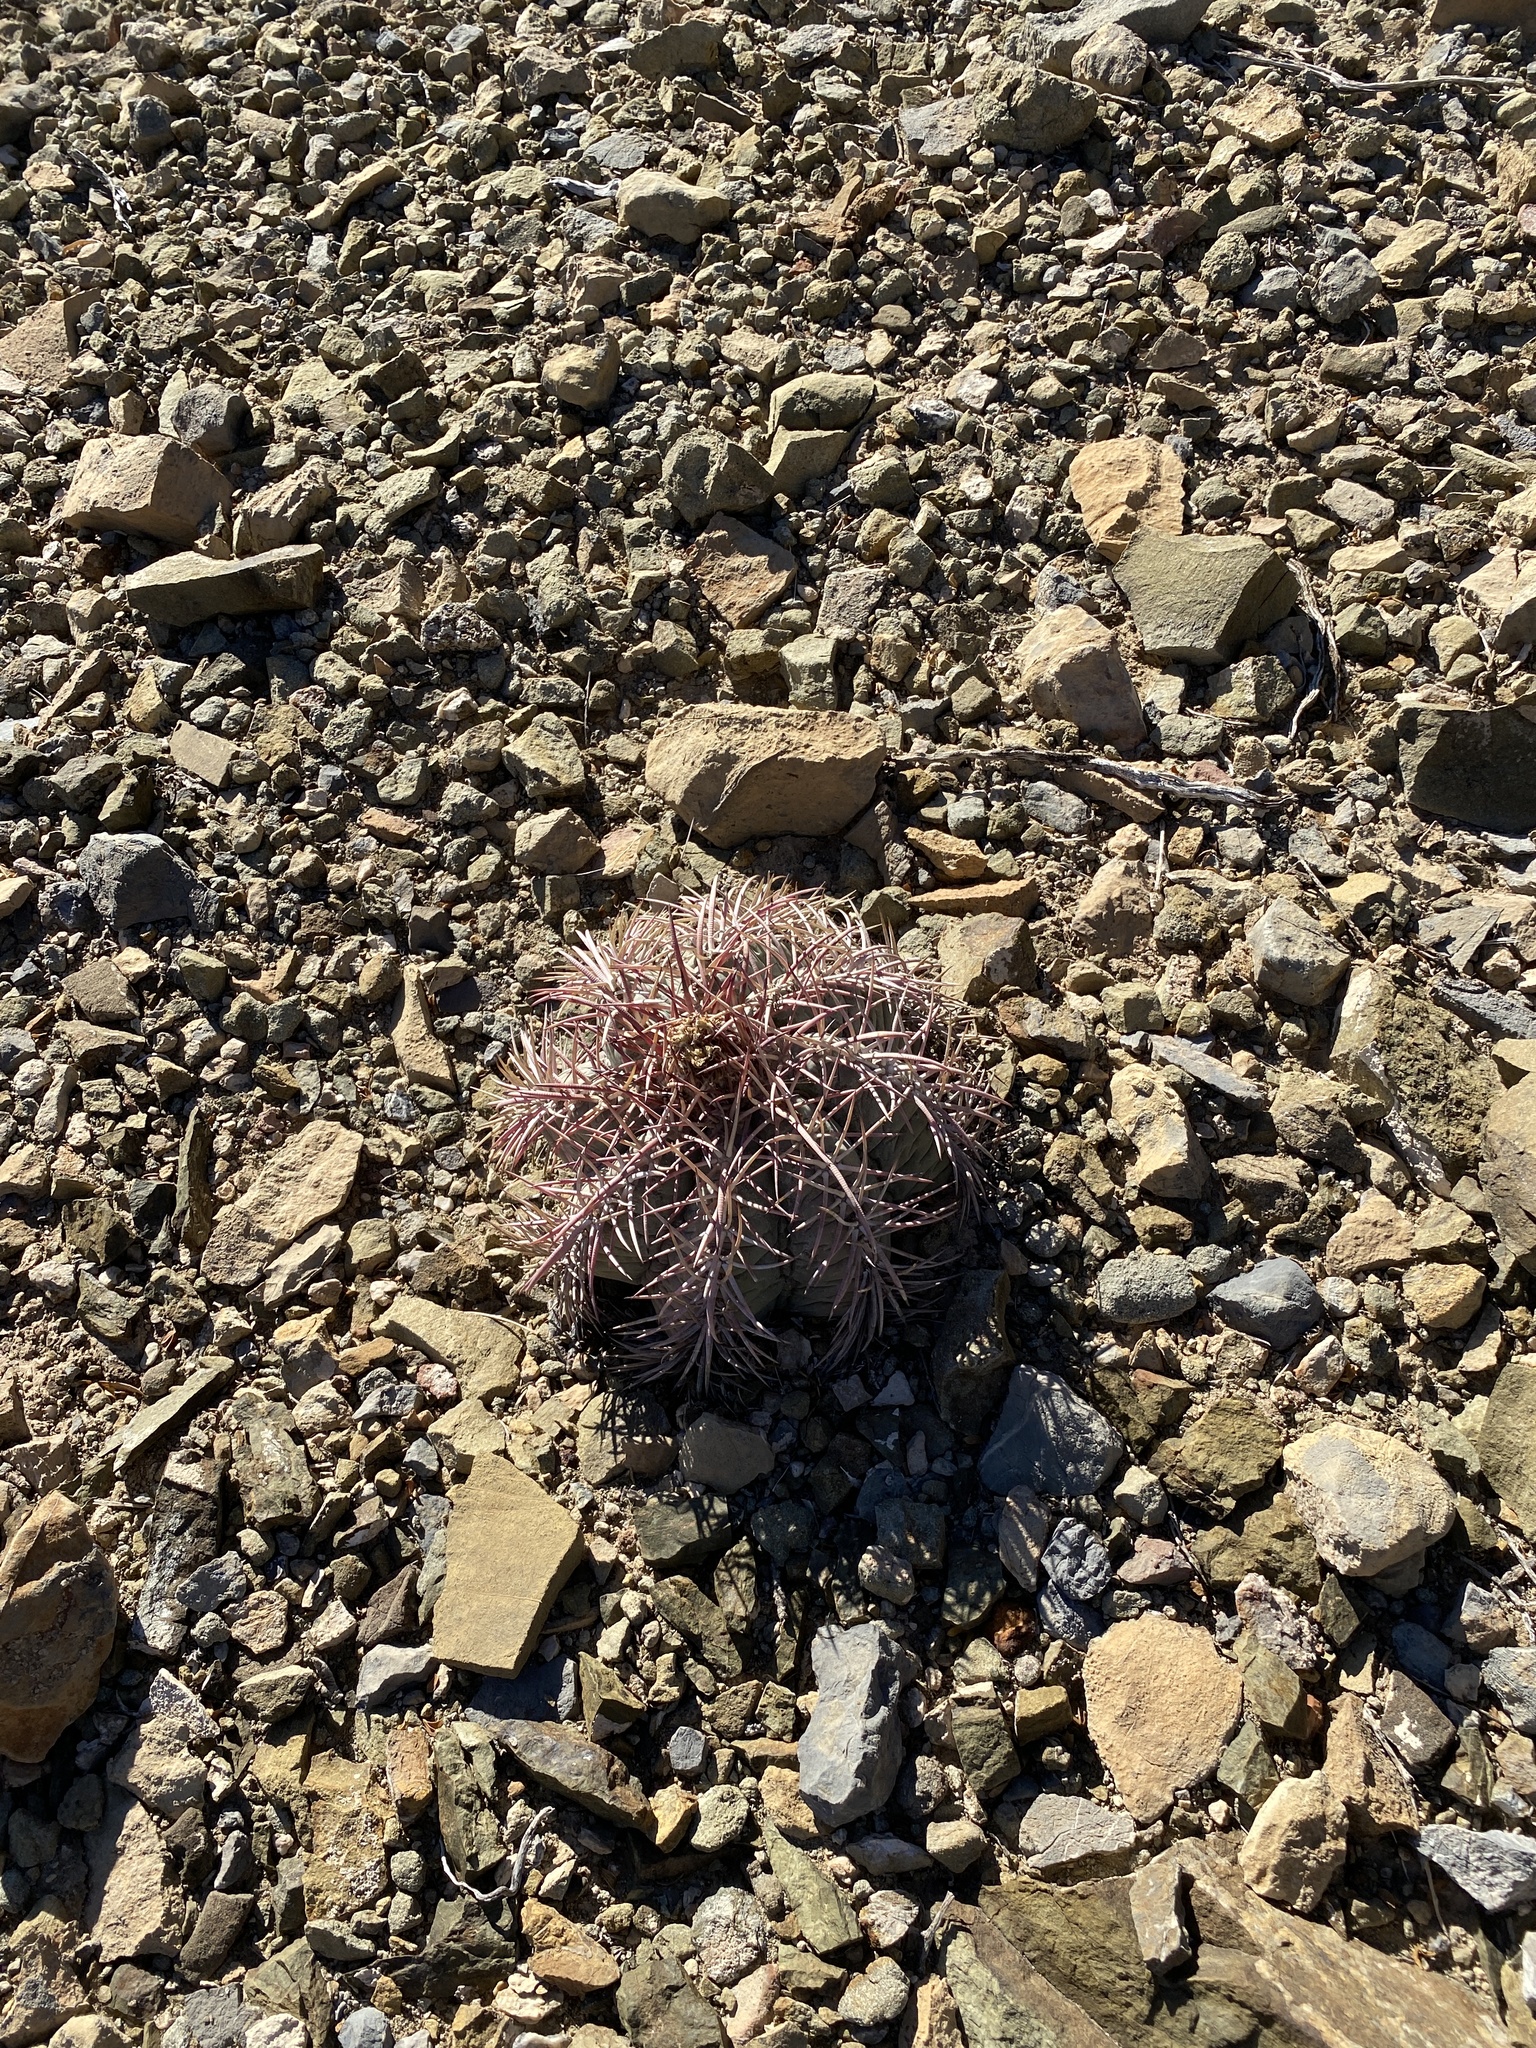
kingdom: Plantae
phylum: Tracheophyta
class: Magnoliopsida
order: Caryophyllales
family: Cactaceae
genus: Echinocactus
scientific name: Echinocactus horizonthalonius
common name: Devilshead
